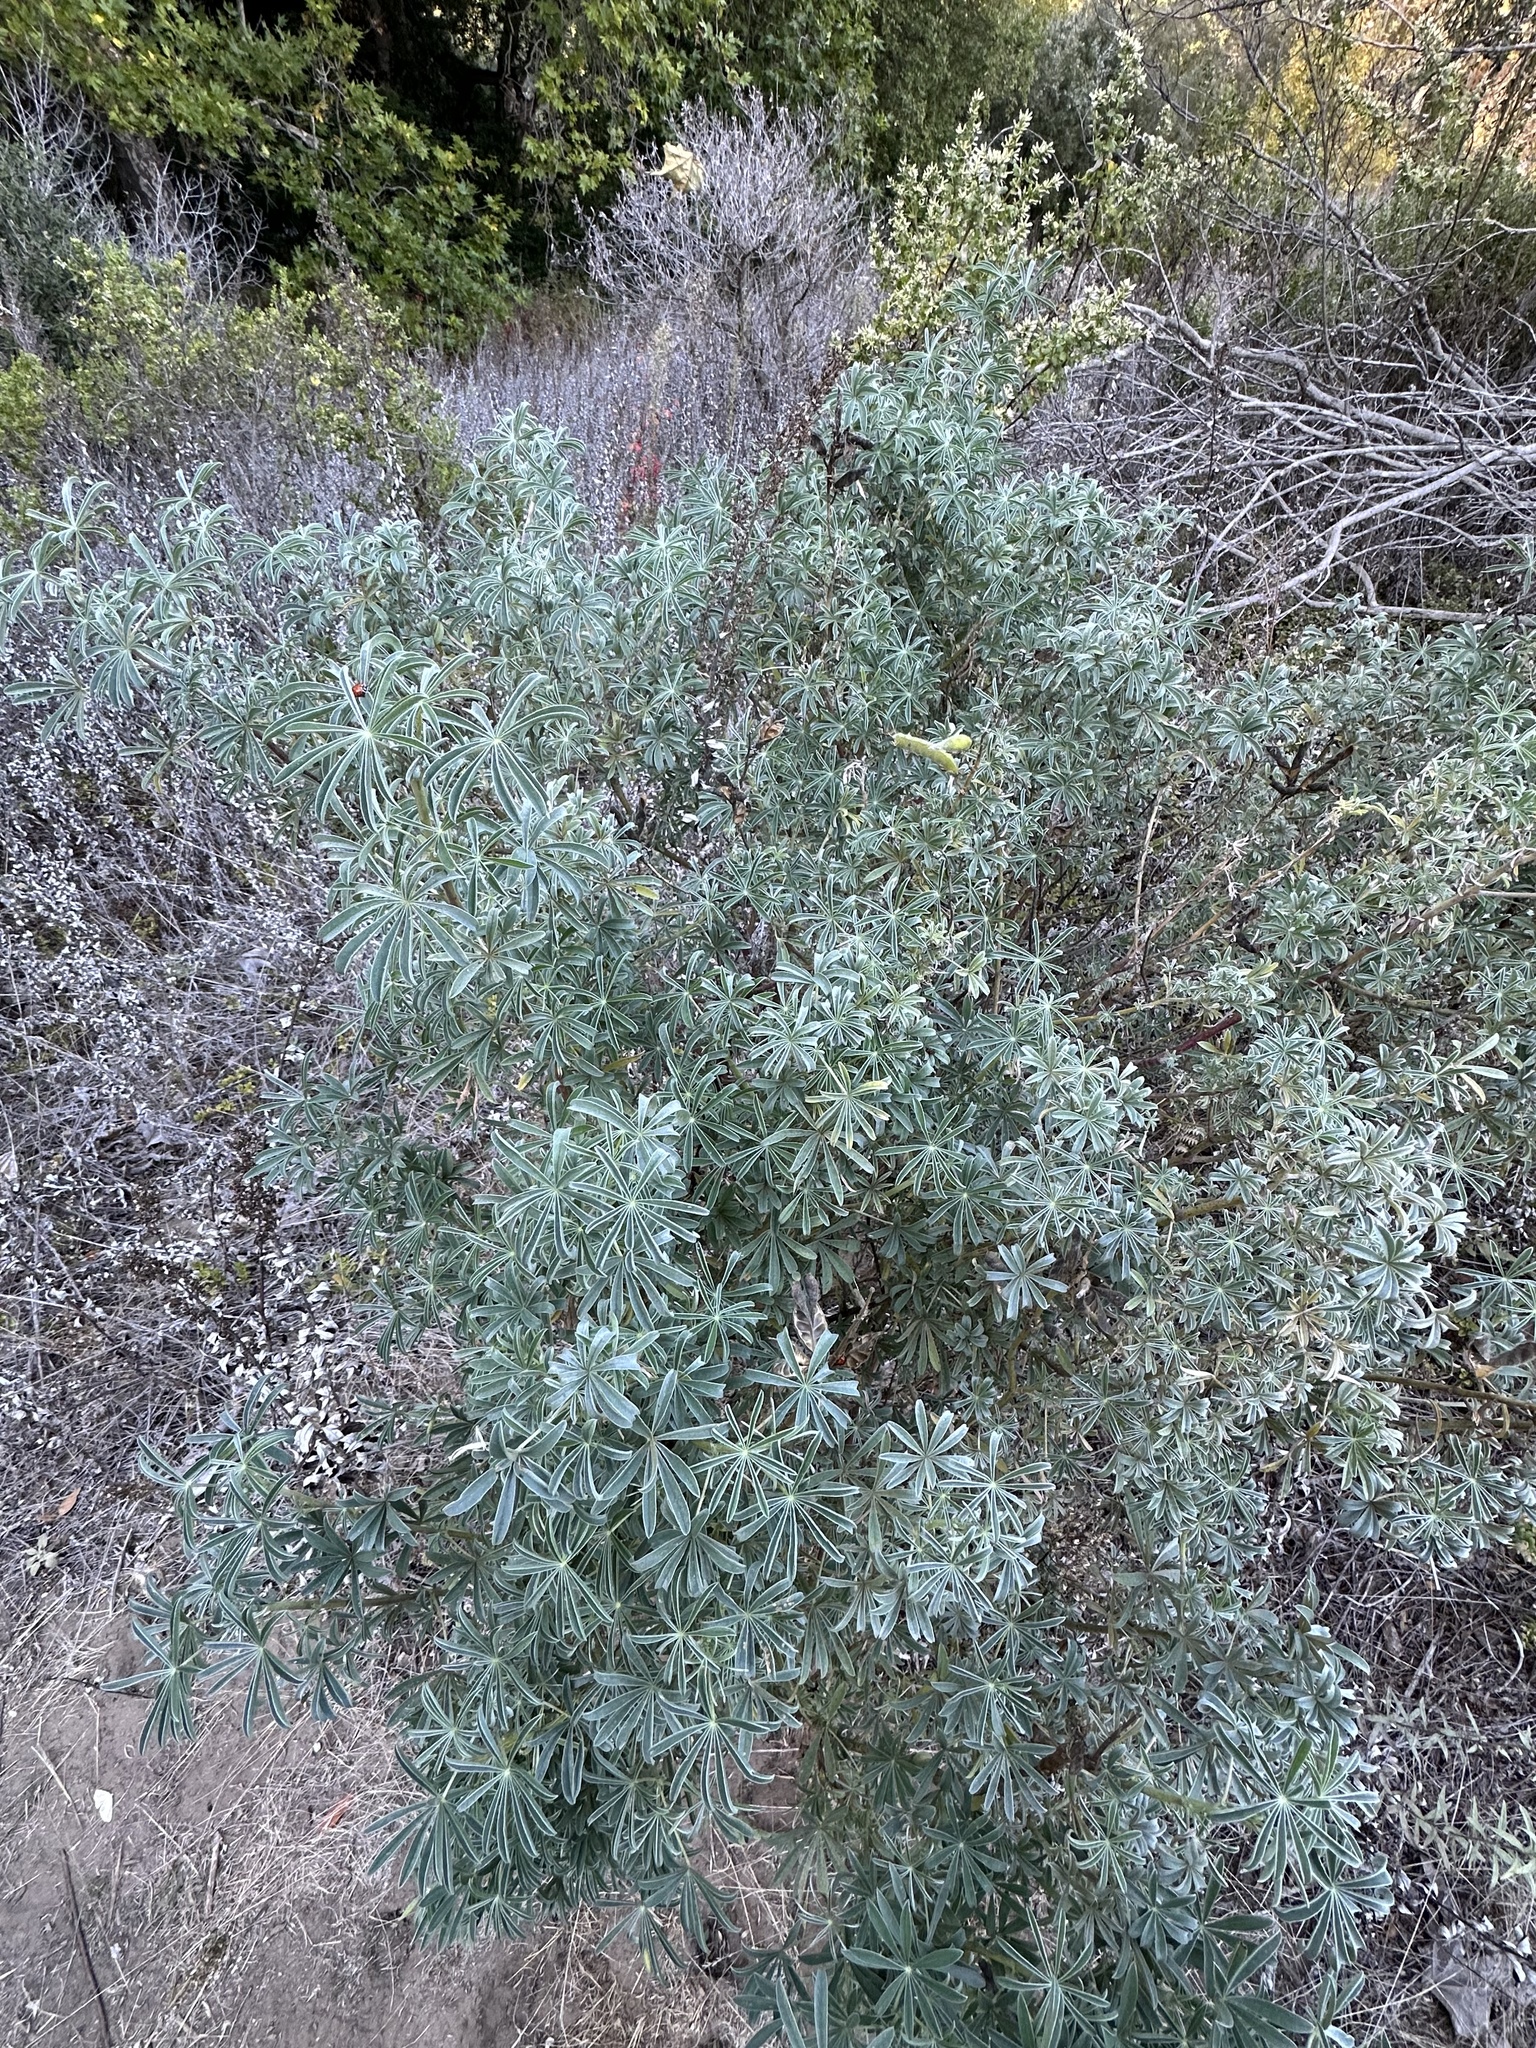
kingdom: Plantae
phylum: Tracheophyta
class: Magnoliopsida
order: Fabales
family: Fabaceae
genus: Lupinus
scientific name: Lupinus arboreus
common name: Yellow bush lupine
